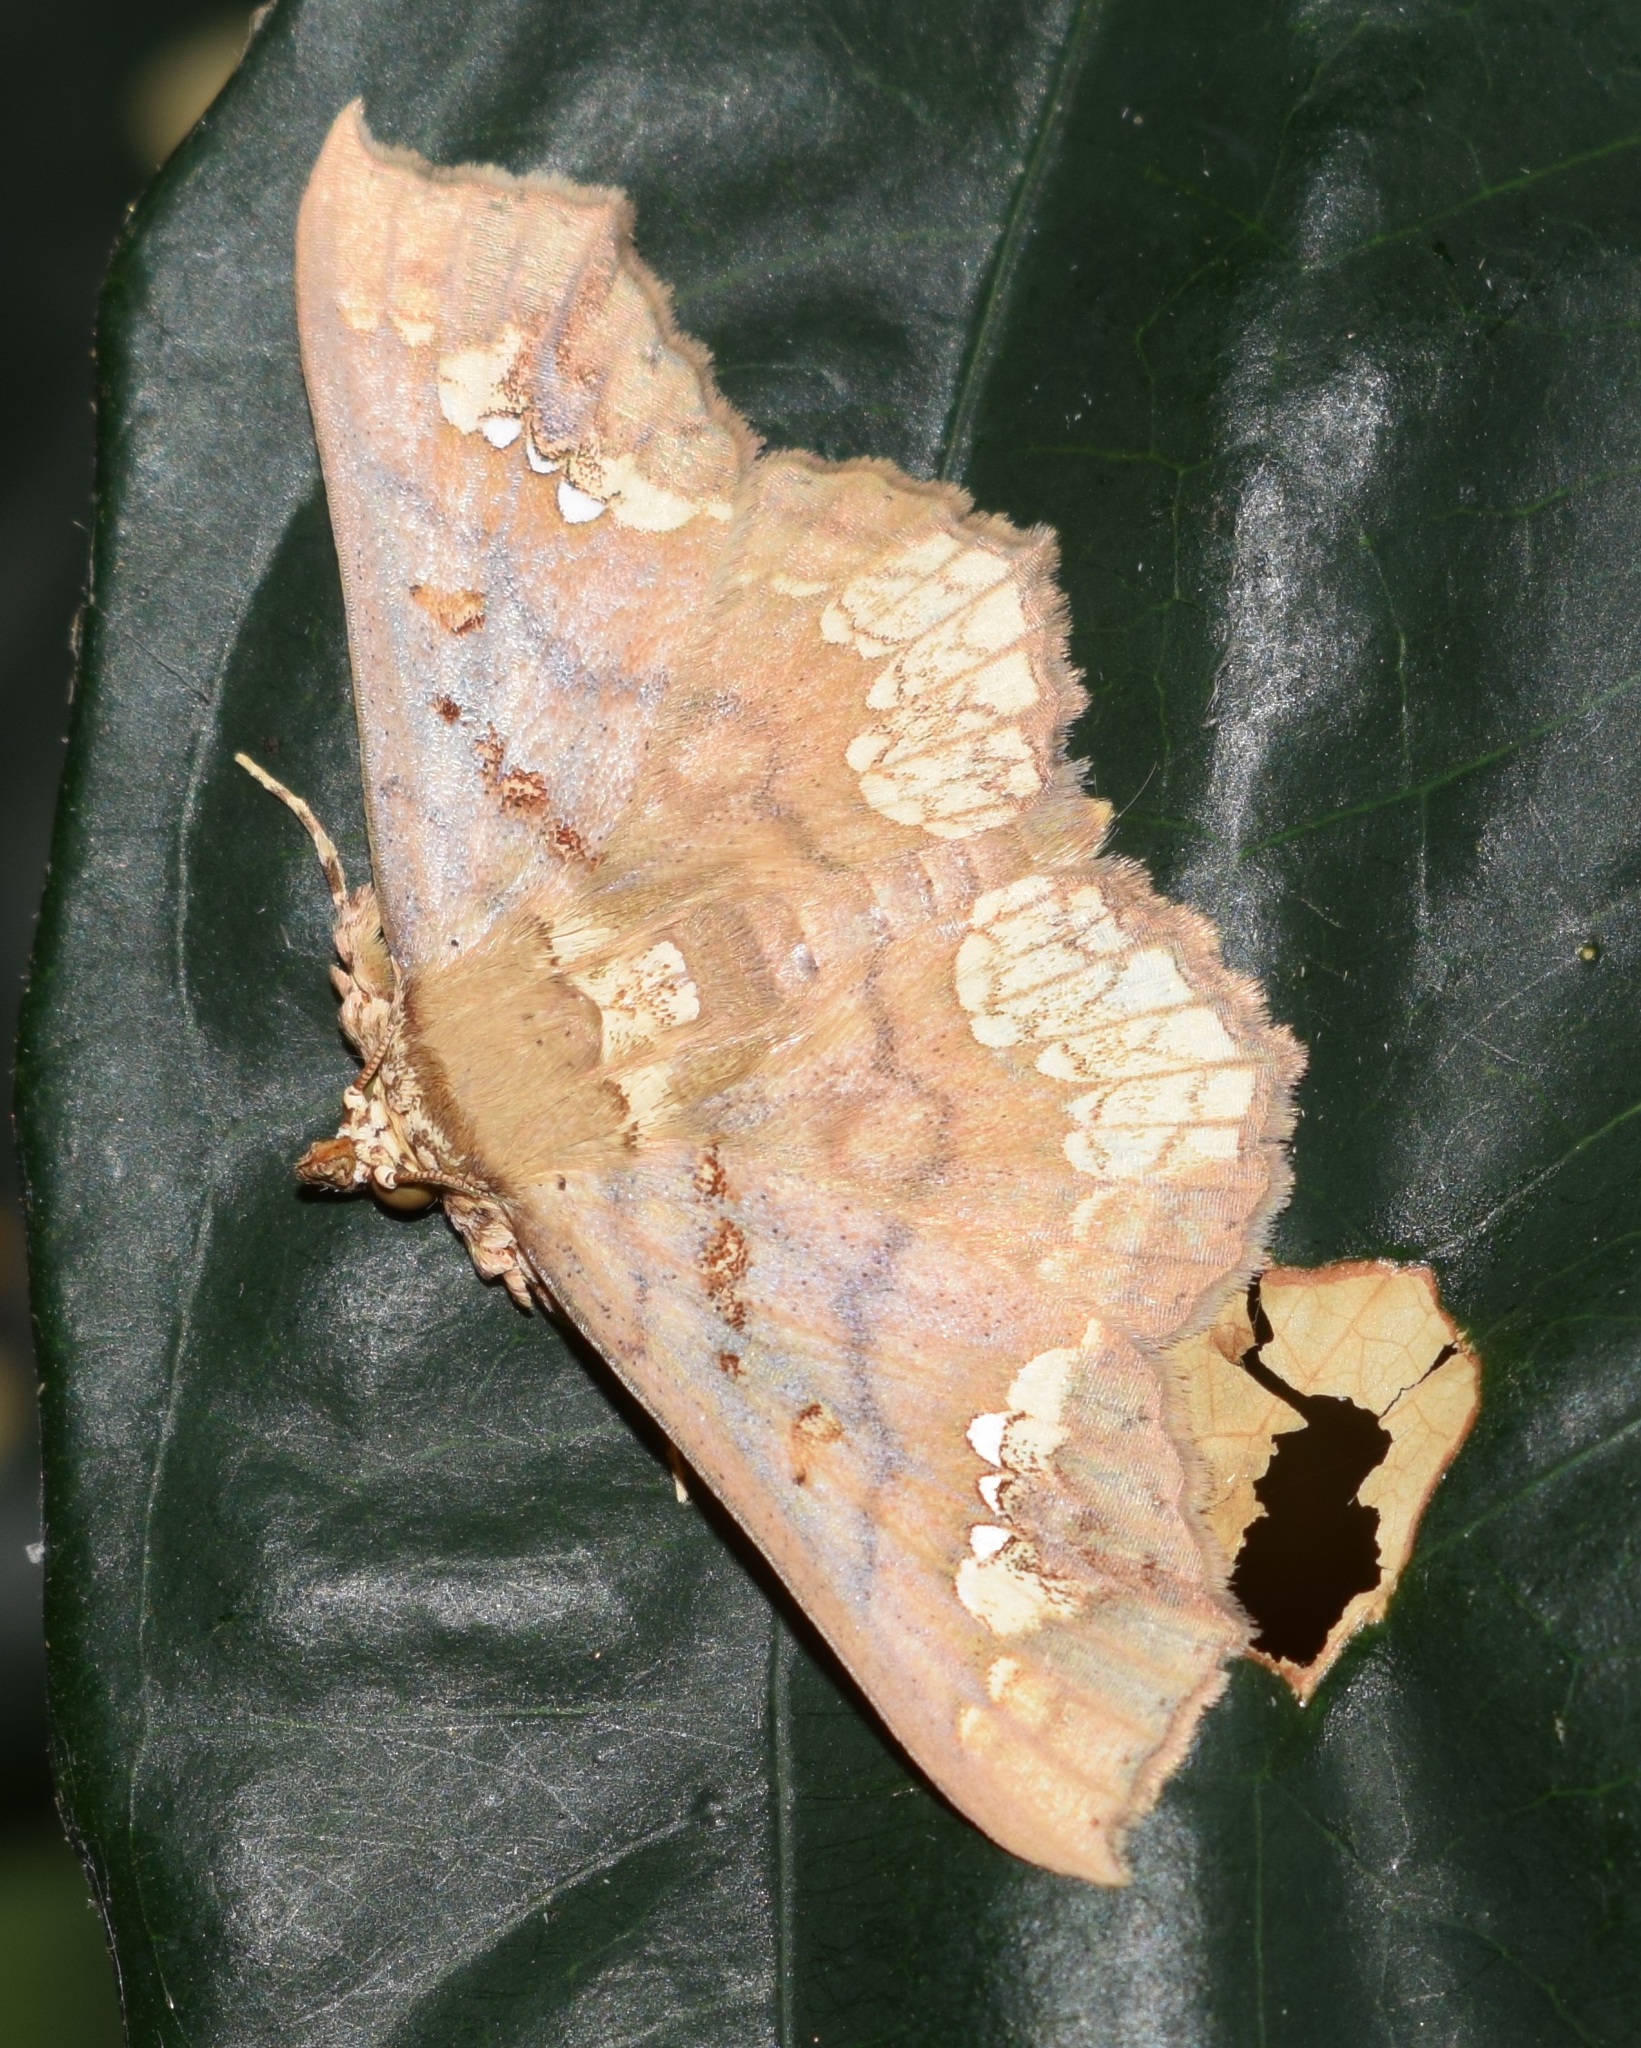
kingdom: Animalia
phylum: Arthropoda
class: Insecta
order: Lepidoptera
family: Erebidae
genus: Lopharthrum
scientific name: Lopharthrum comprimens
